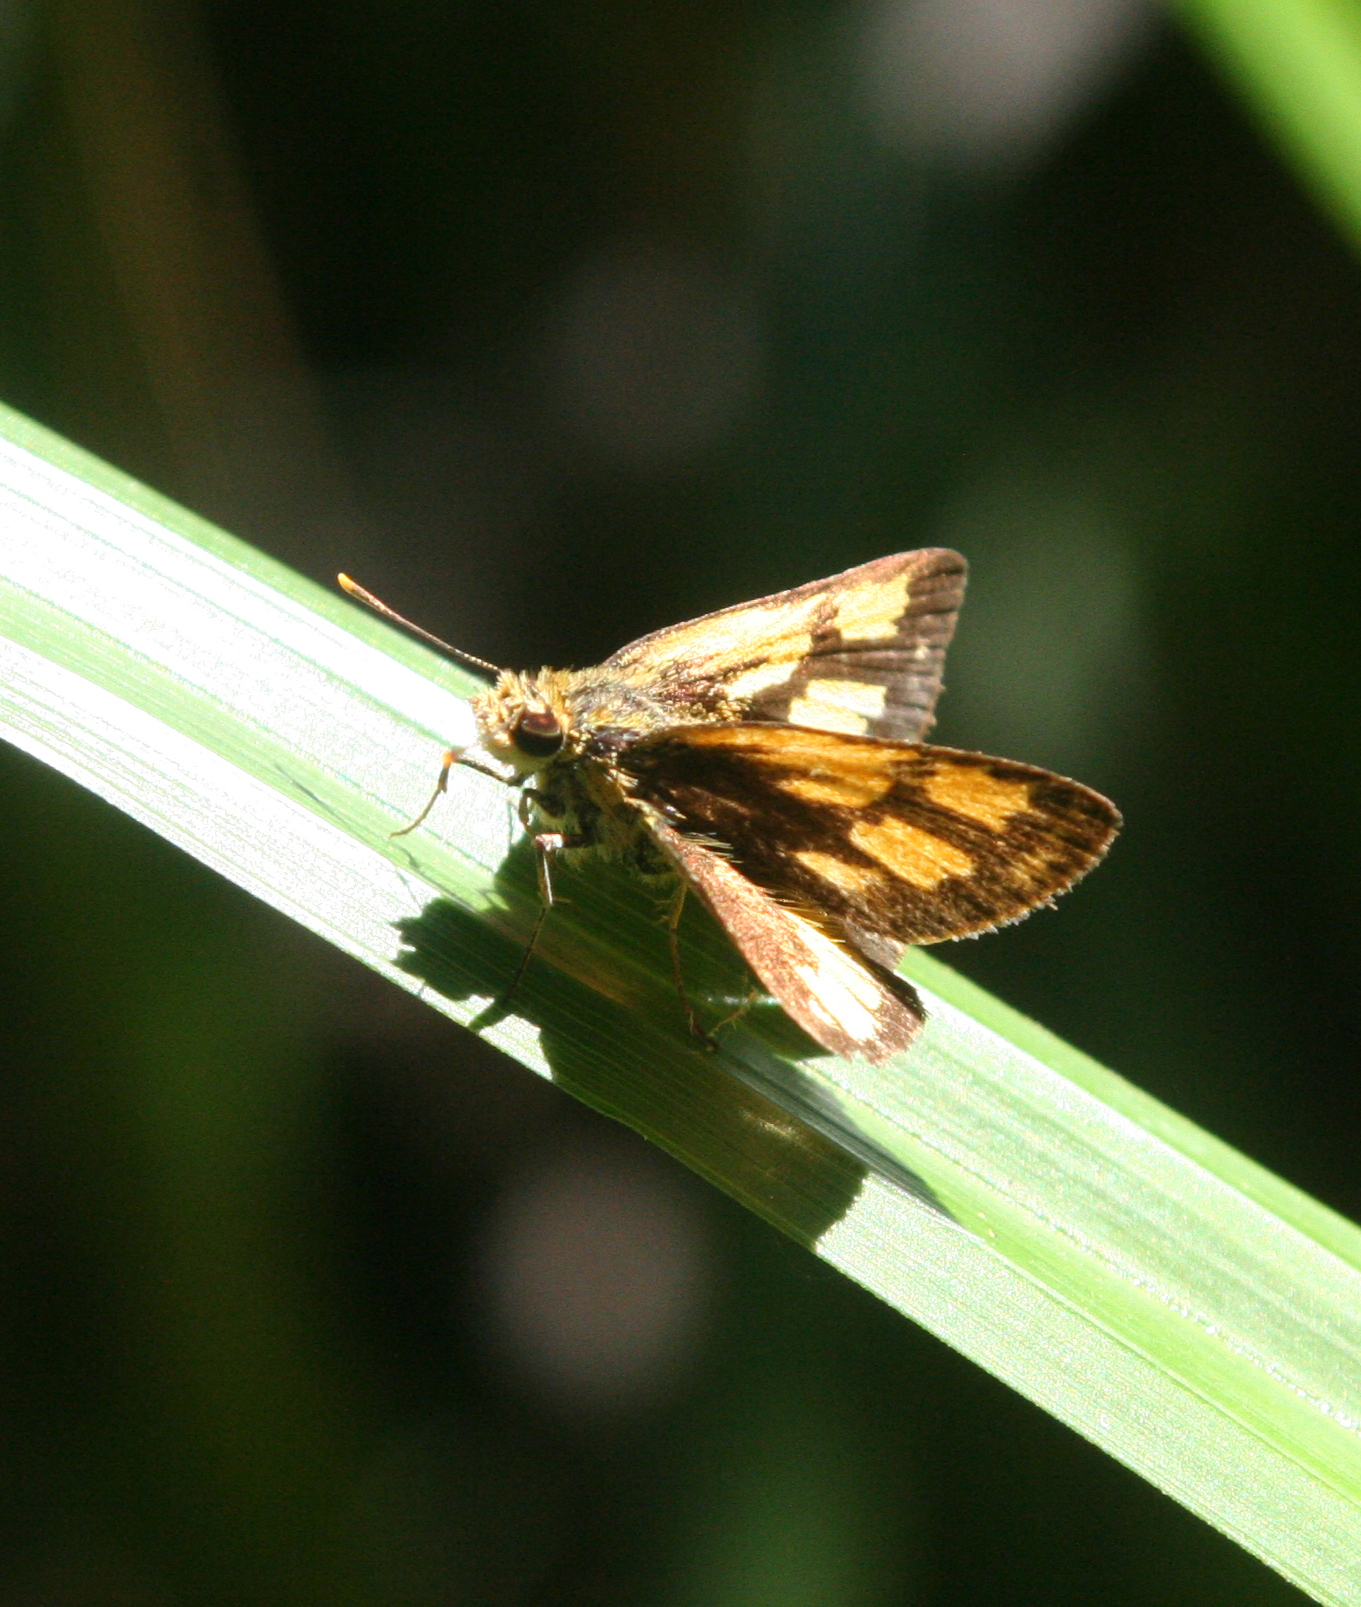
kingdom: Animalia
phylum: Arthropoda
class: Insecta
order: Lepidoptera
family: Hesperiidae
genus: Ampittia
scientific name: Ampittia dioscorides
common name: Common bush hopper
